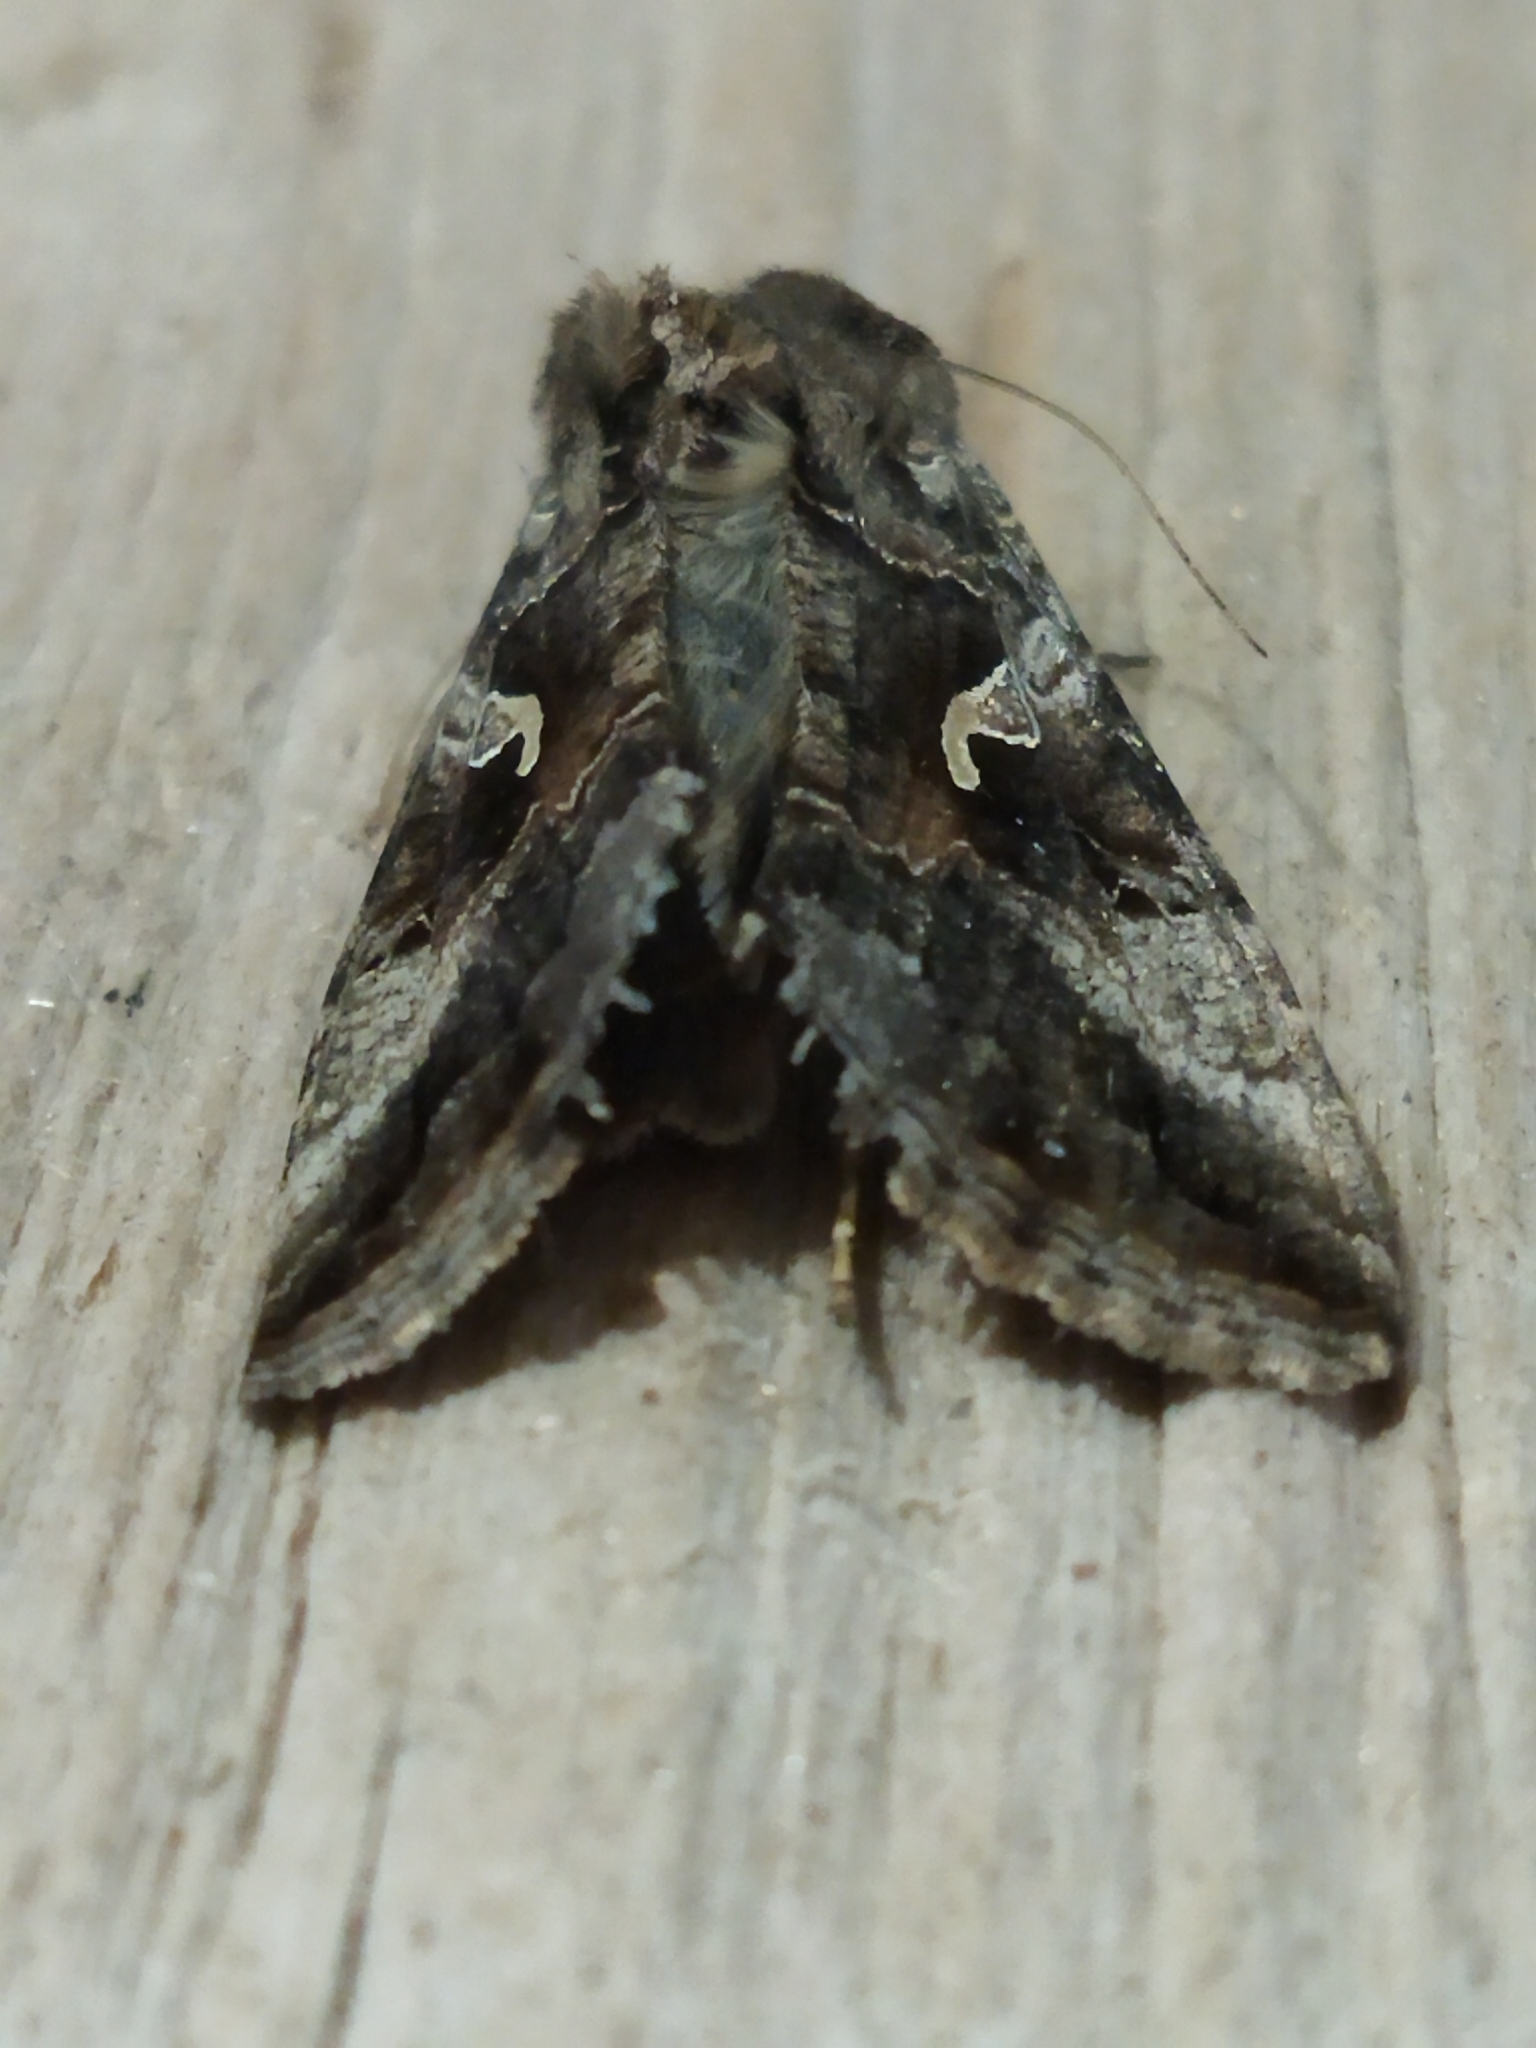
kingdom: Animalia
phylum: Arthropoda
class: Insecta
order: Lepidoptera
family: Noctuidae
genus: Autographa
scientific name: Autographa gamma
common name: Silver y
